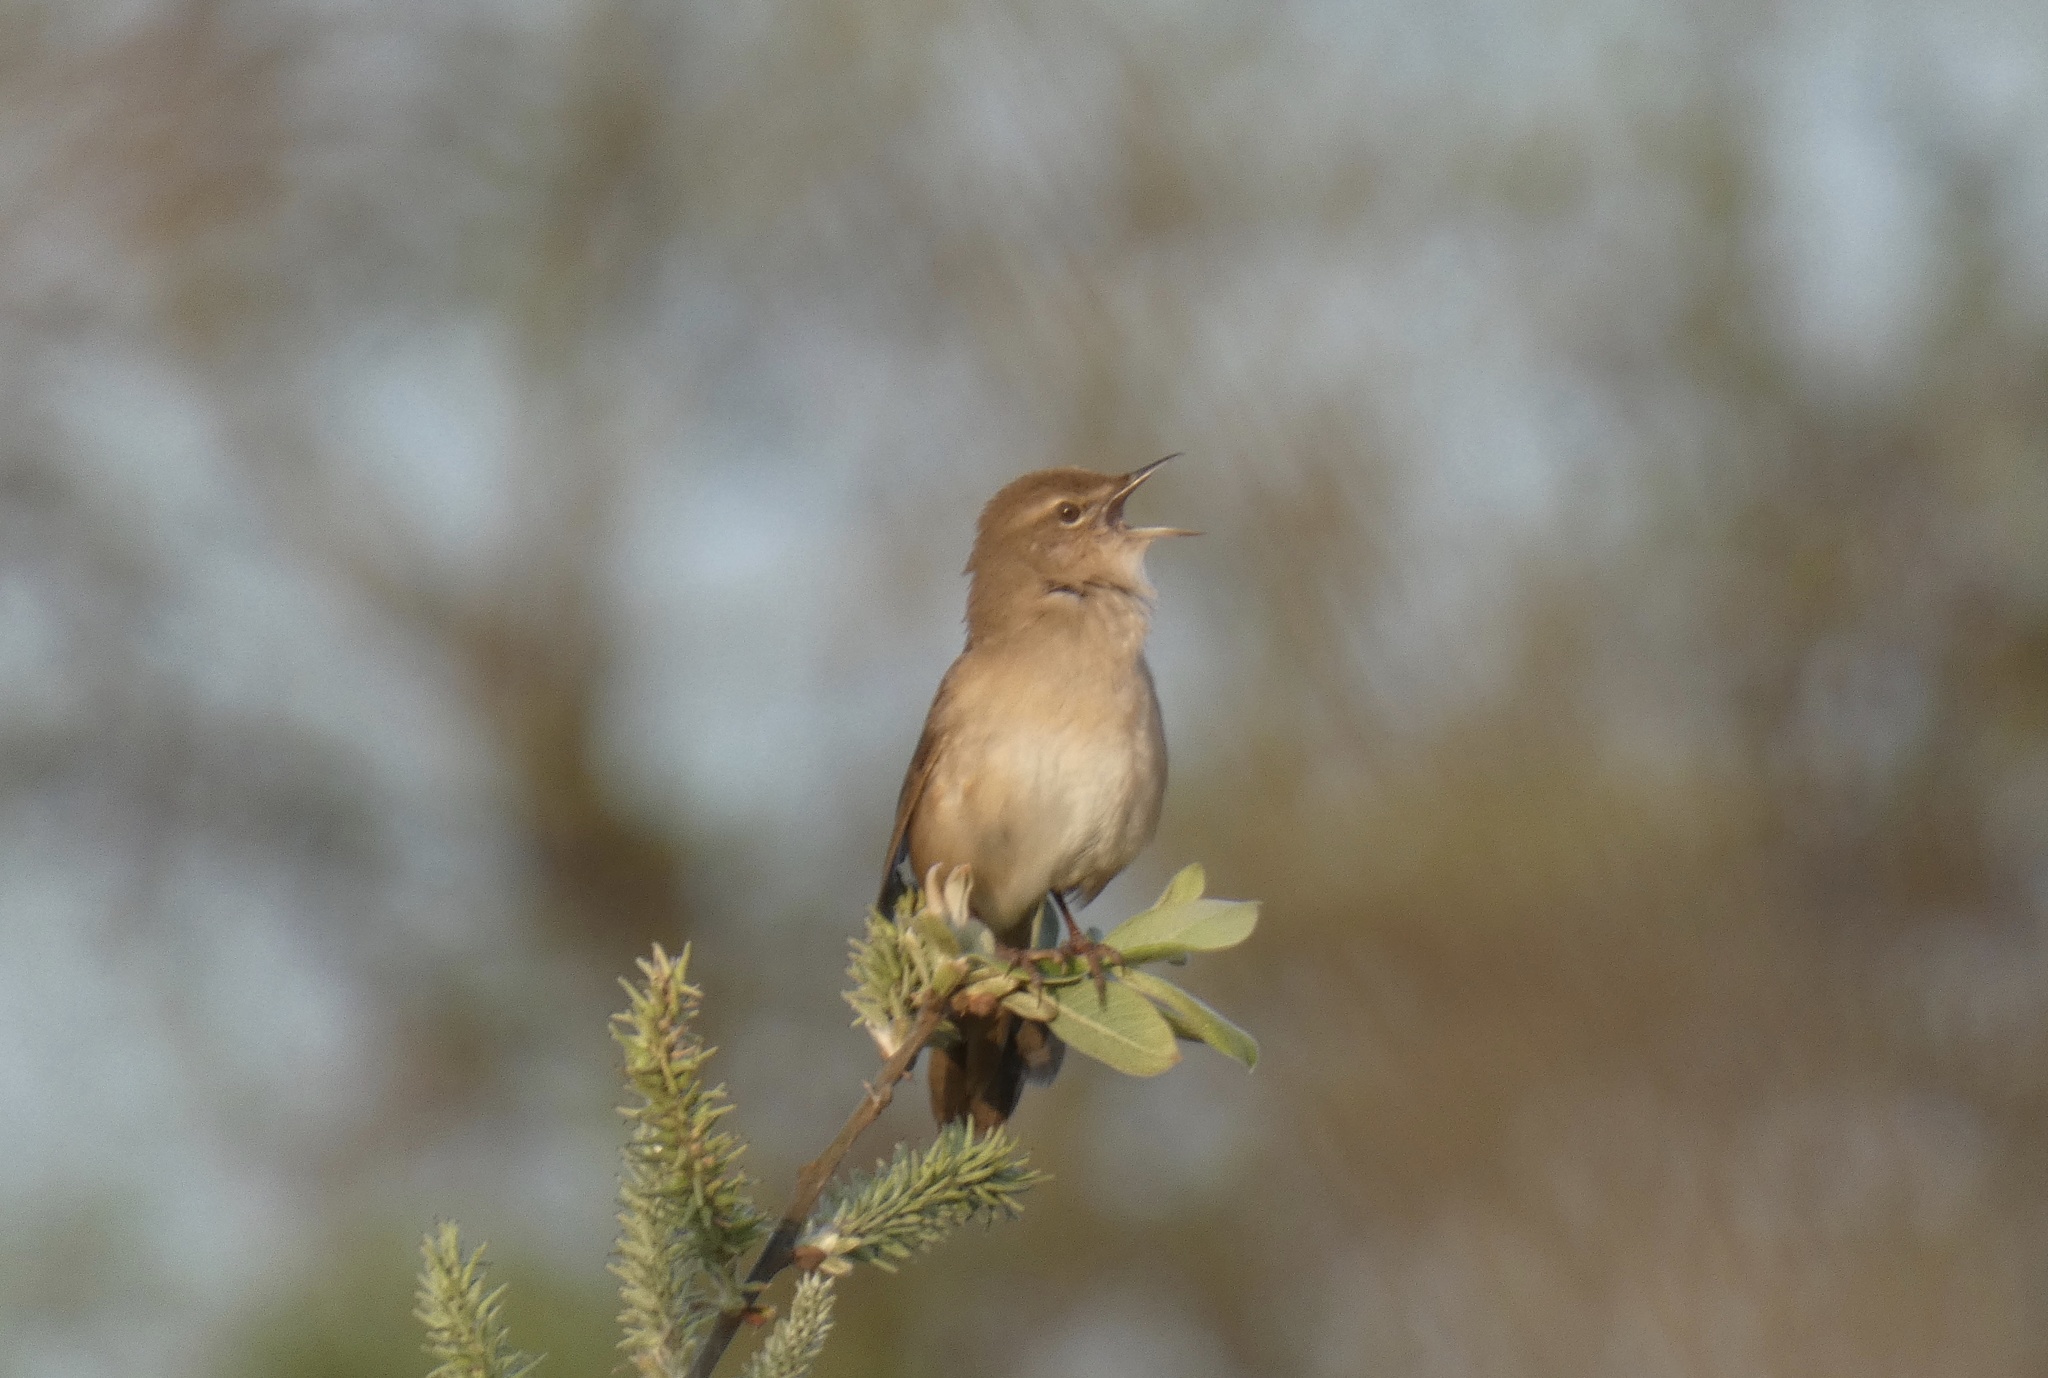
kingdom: Animalia
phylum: Chordata
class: Aves
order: Passeriformes
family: Locustellidae
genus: Locustella
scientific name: Locustella luscinioides
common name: Savi's warbler
